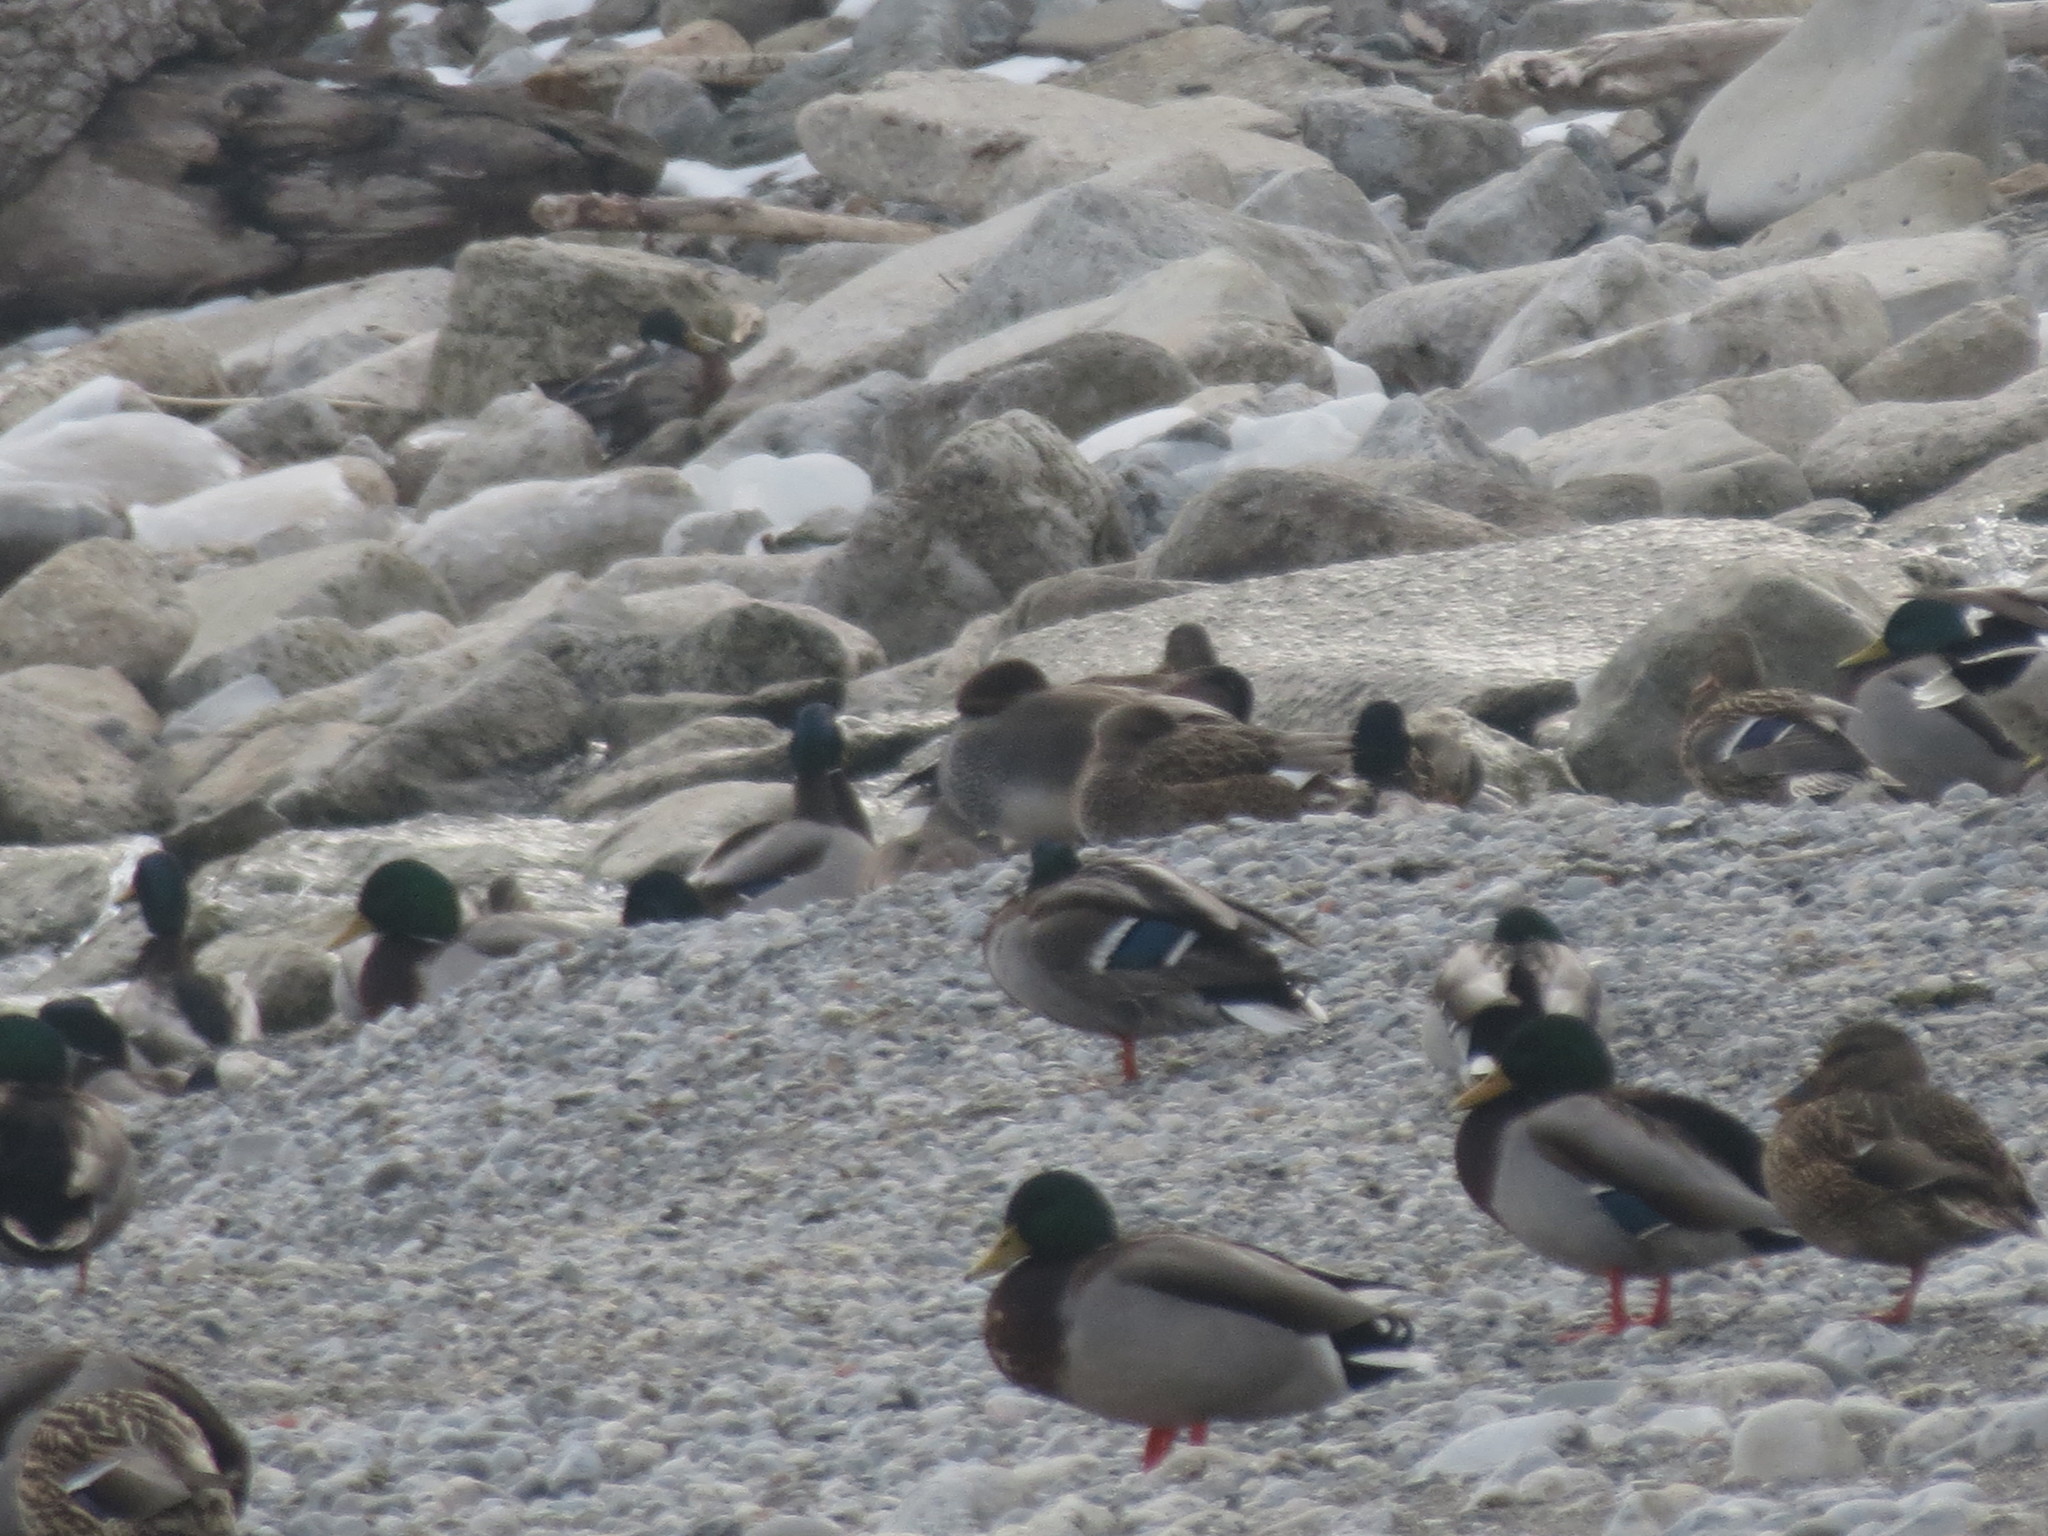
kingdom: Animalia
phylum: Chordata
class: Aves
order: Anseriformes
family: Anatidae
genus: Mareca
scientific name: Mareca strepera
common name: Gadwall
